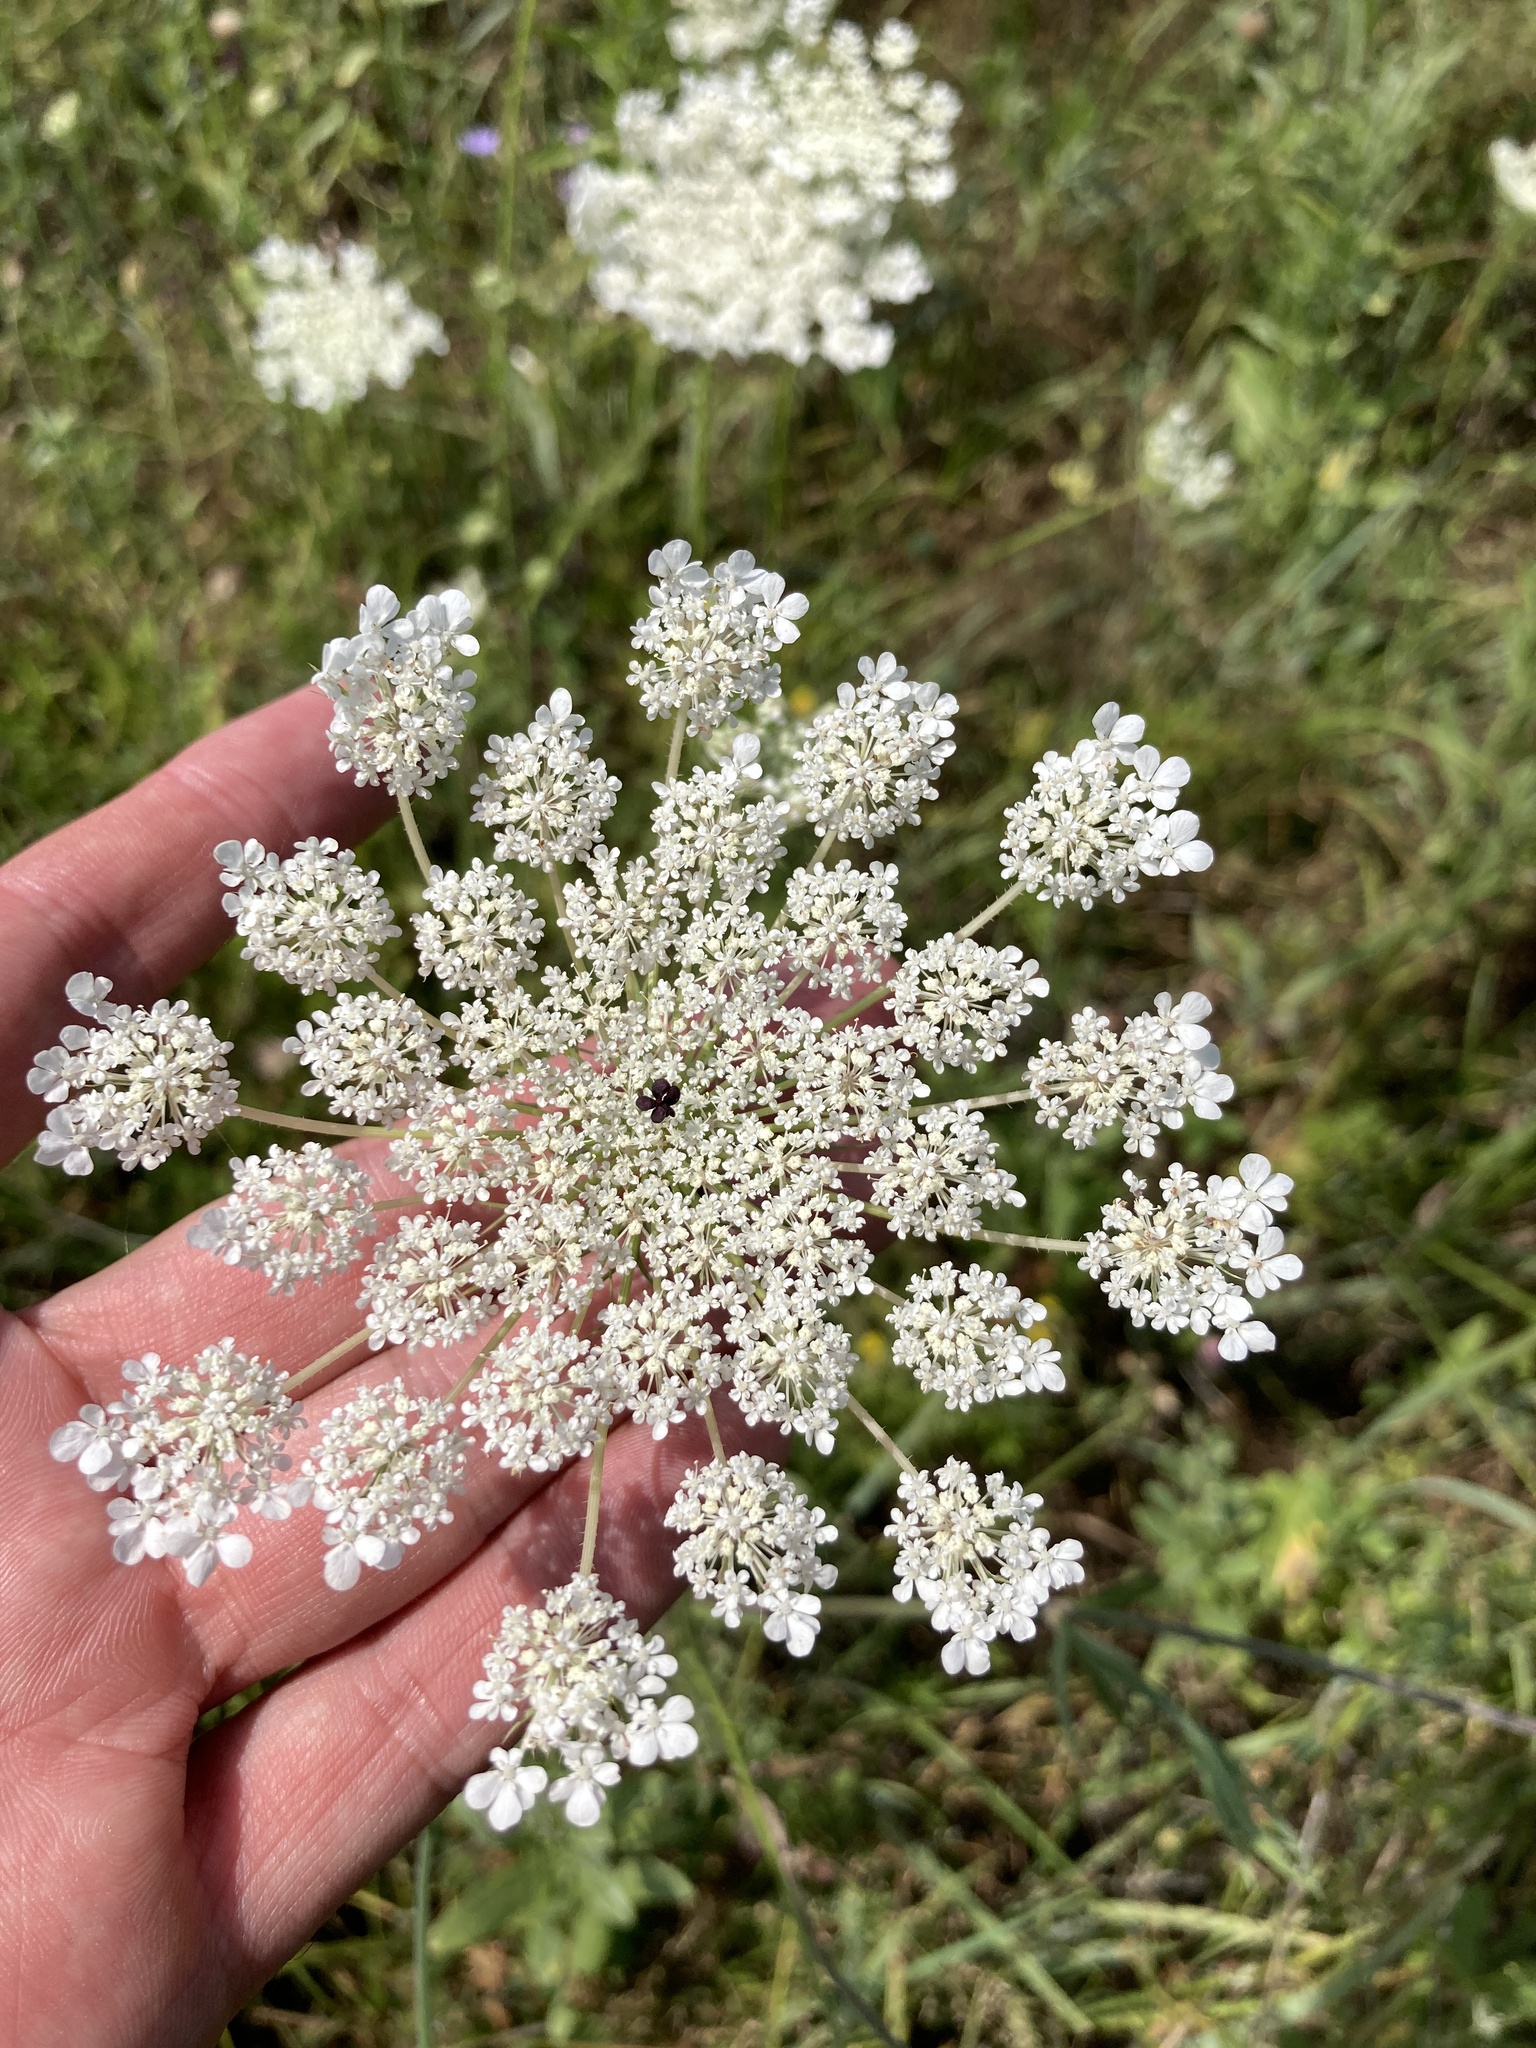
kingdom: Plantae
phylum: Tracheophyta
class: Magnoliopsida
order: Apiales
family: Apiaceae
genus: Daucus
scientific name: Daucus carota
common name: Wild carrot
